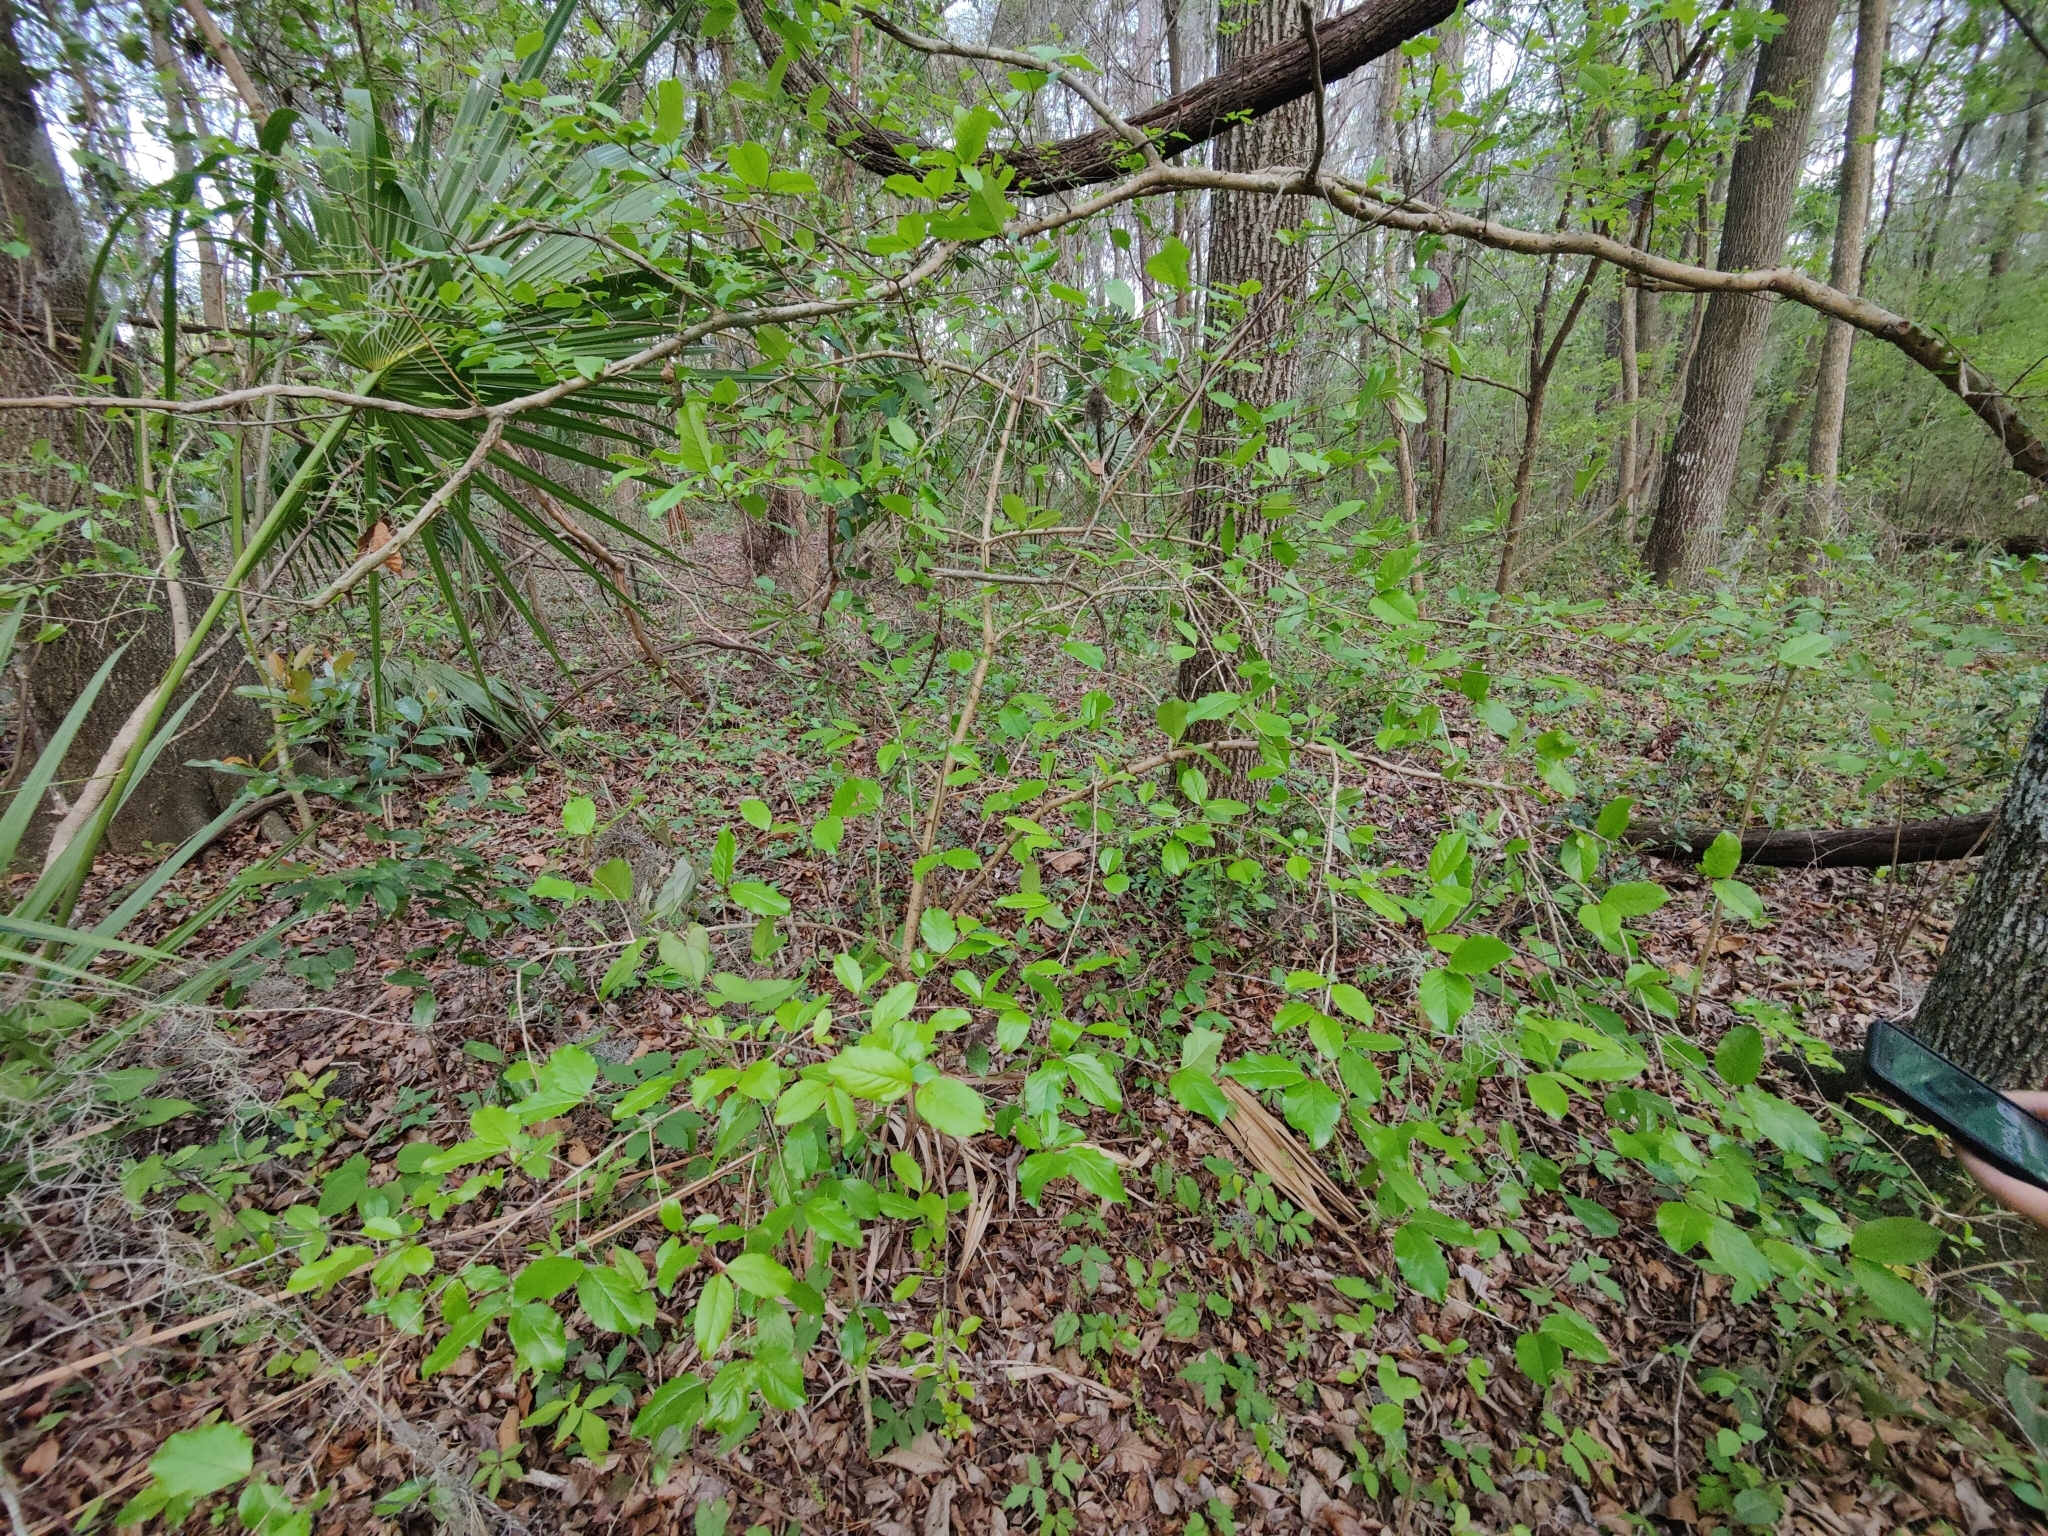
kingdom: Plantae
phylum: Tracheophyta
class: Magnoliopsida
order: Dipsacales
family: Viburnaceae
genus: Viburnum
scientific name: Viburnum rufidulum
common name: Blue haw
